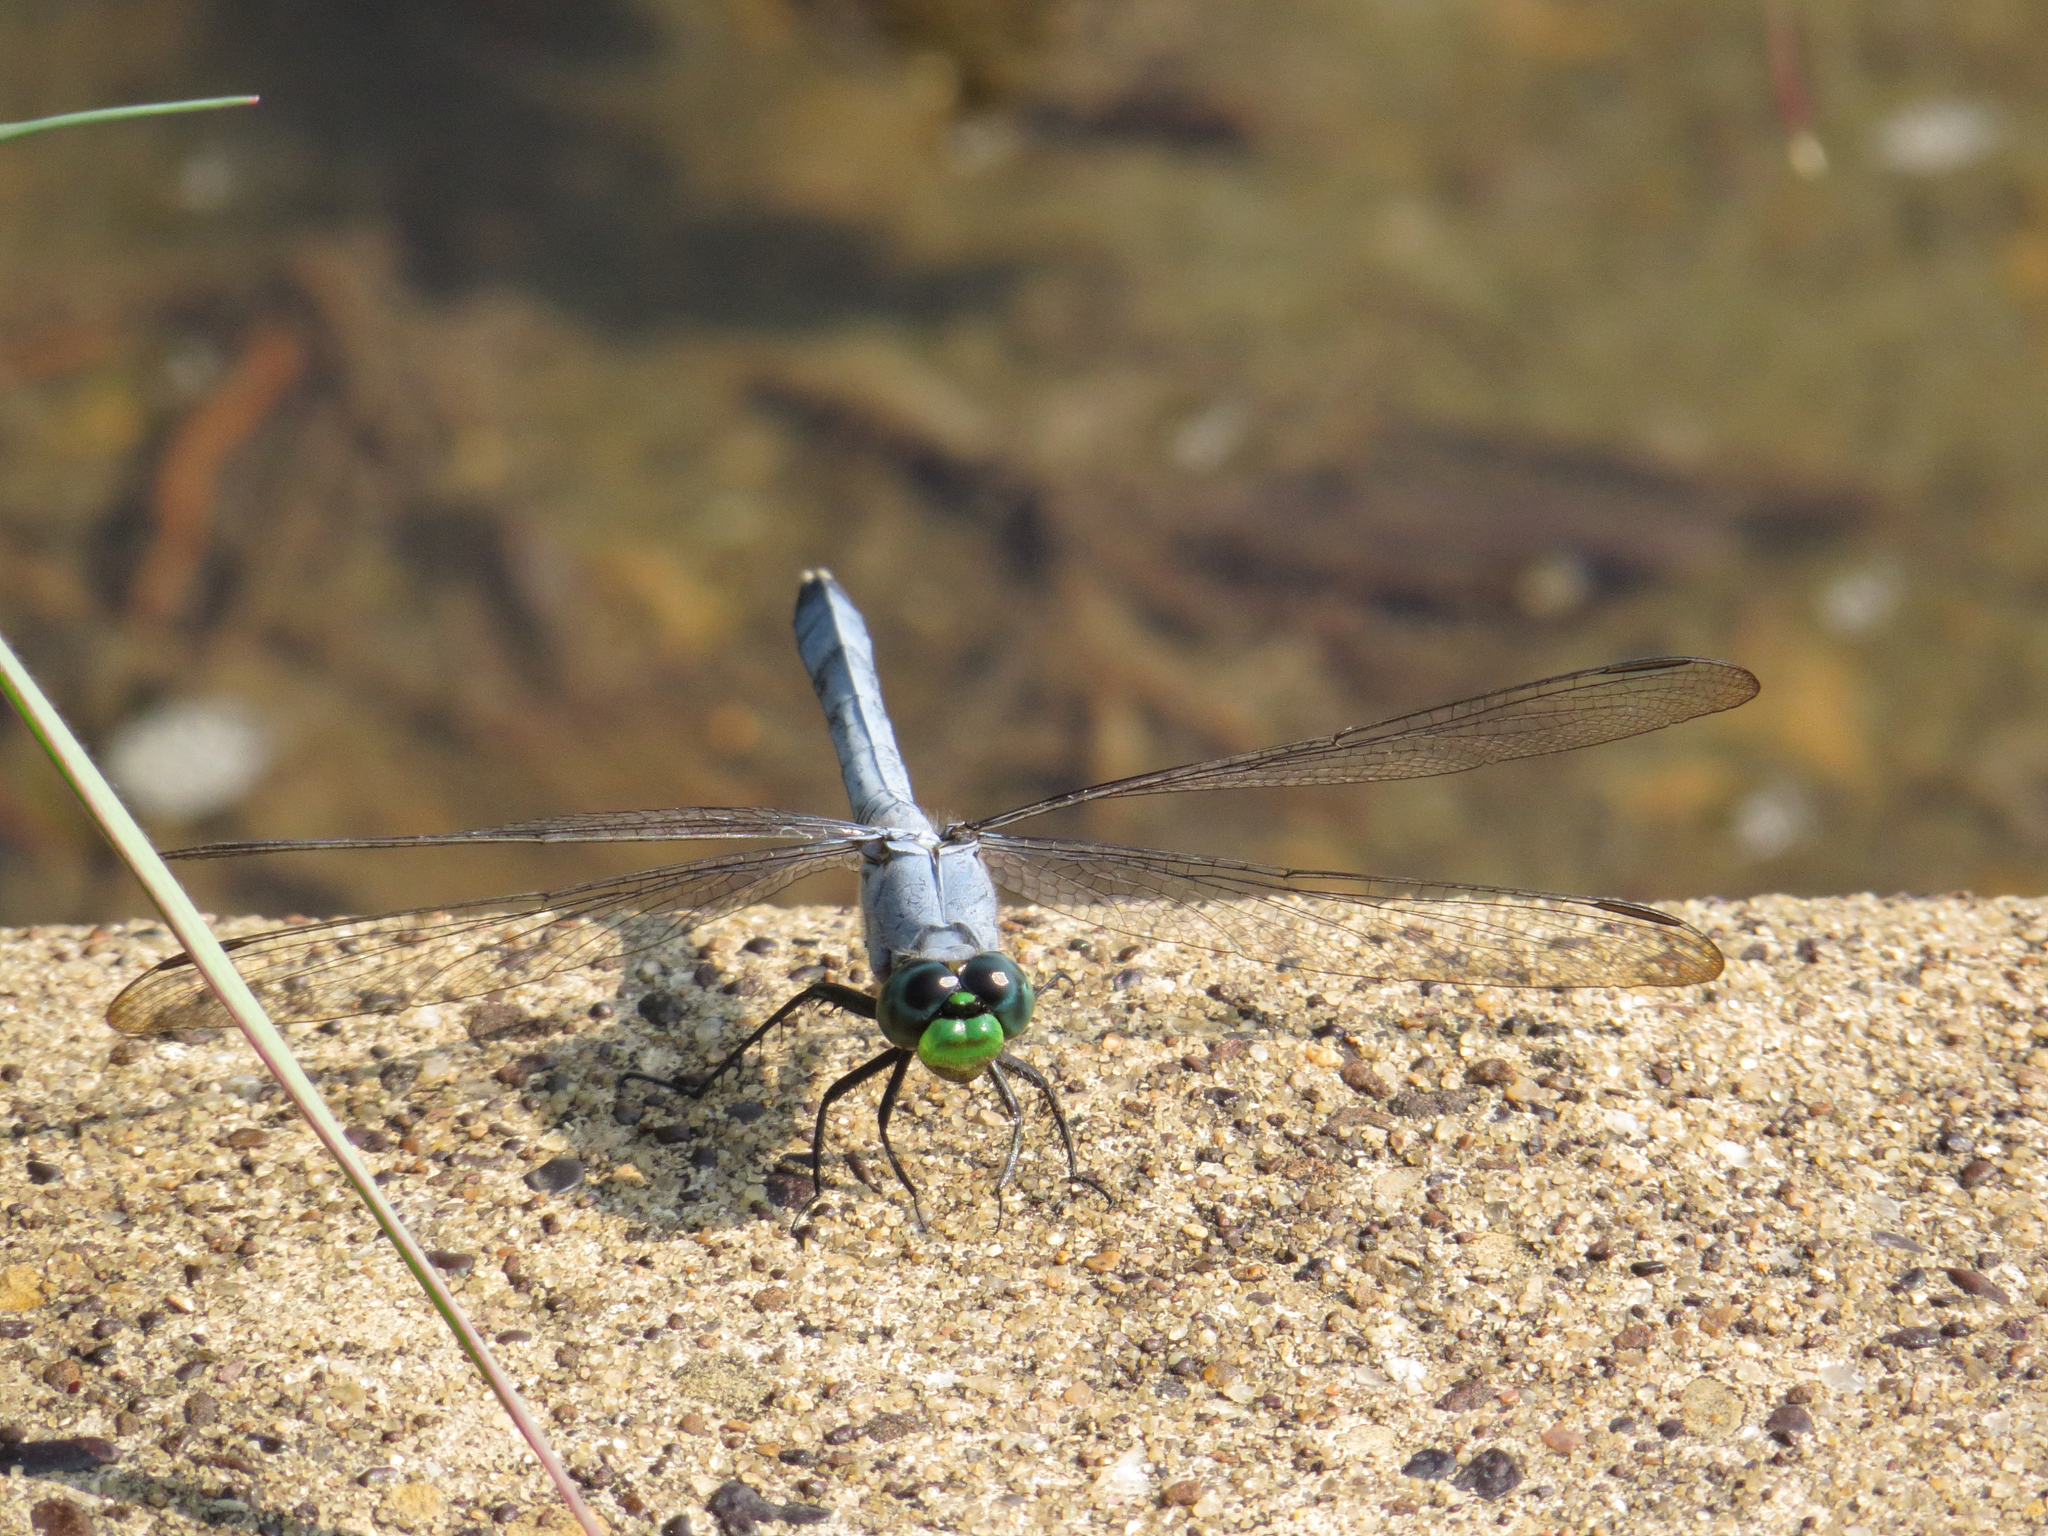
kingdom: Animalia
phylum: Arthropoda
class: Insecta
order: Odonata
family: Libellulidae
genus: Erythemis
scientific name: Erythemis simplicicollis
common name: Eastern pondhawk
